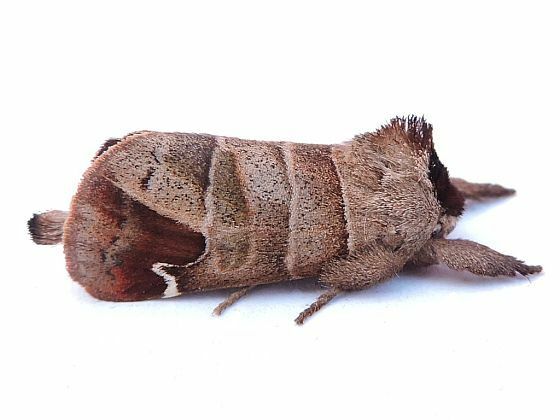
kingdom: Animalia
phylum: Arthropoda
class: Insecta
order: Lepidoptera
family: Notodontidae
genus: Clostera
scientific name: Clostera albosigma
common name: Sigmoid prominent
